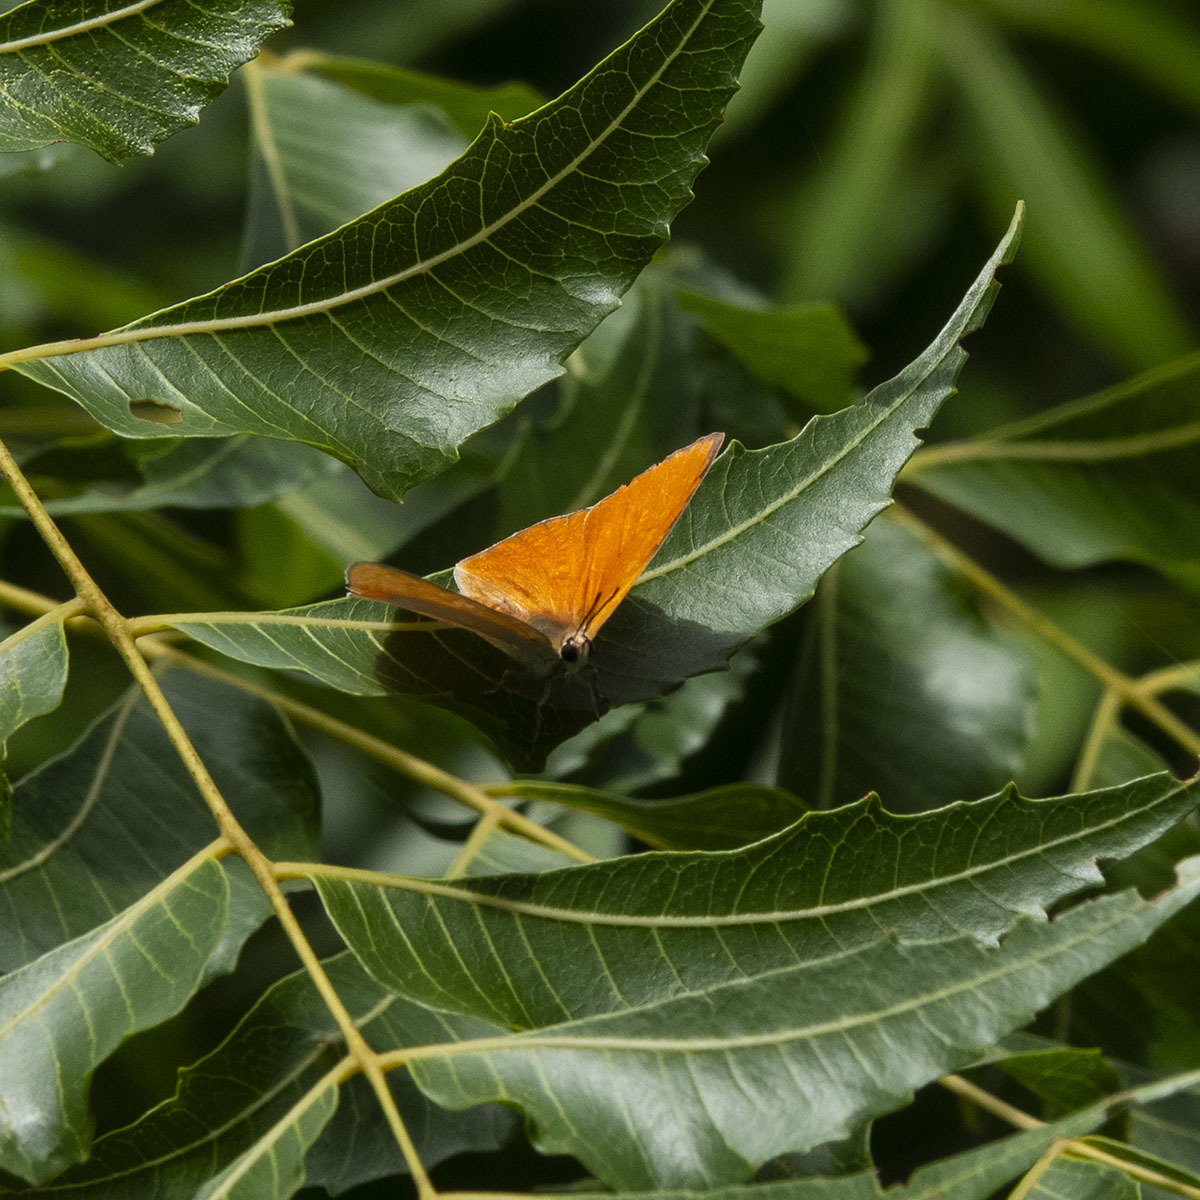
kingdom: Animalia
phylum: Arthropoda
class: Insecta
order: Lepidoptera
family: Lycaenidae
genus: Curetis
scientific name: Curetis thetis
